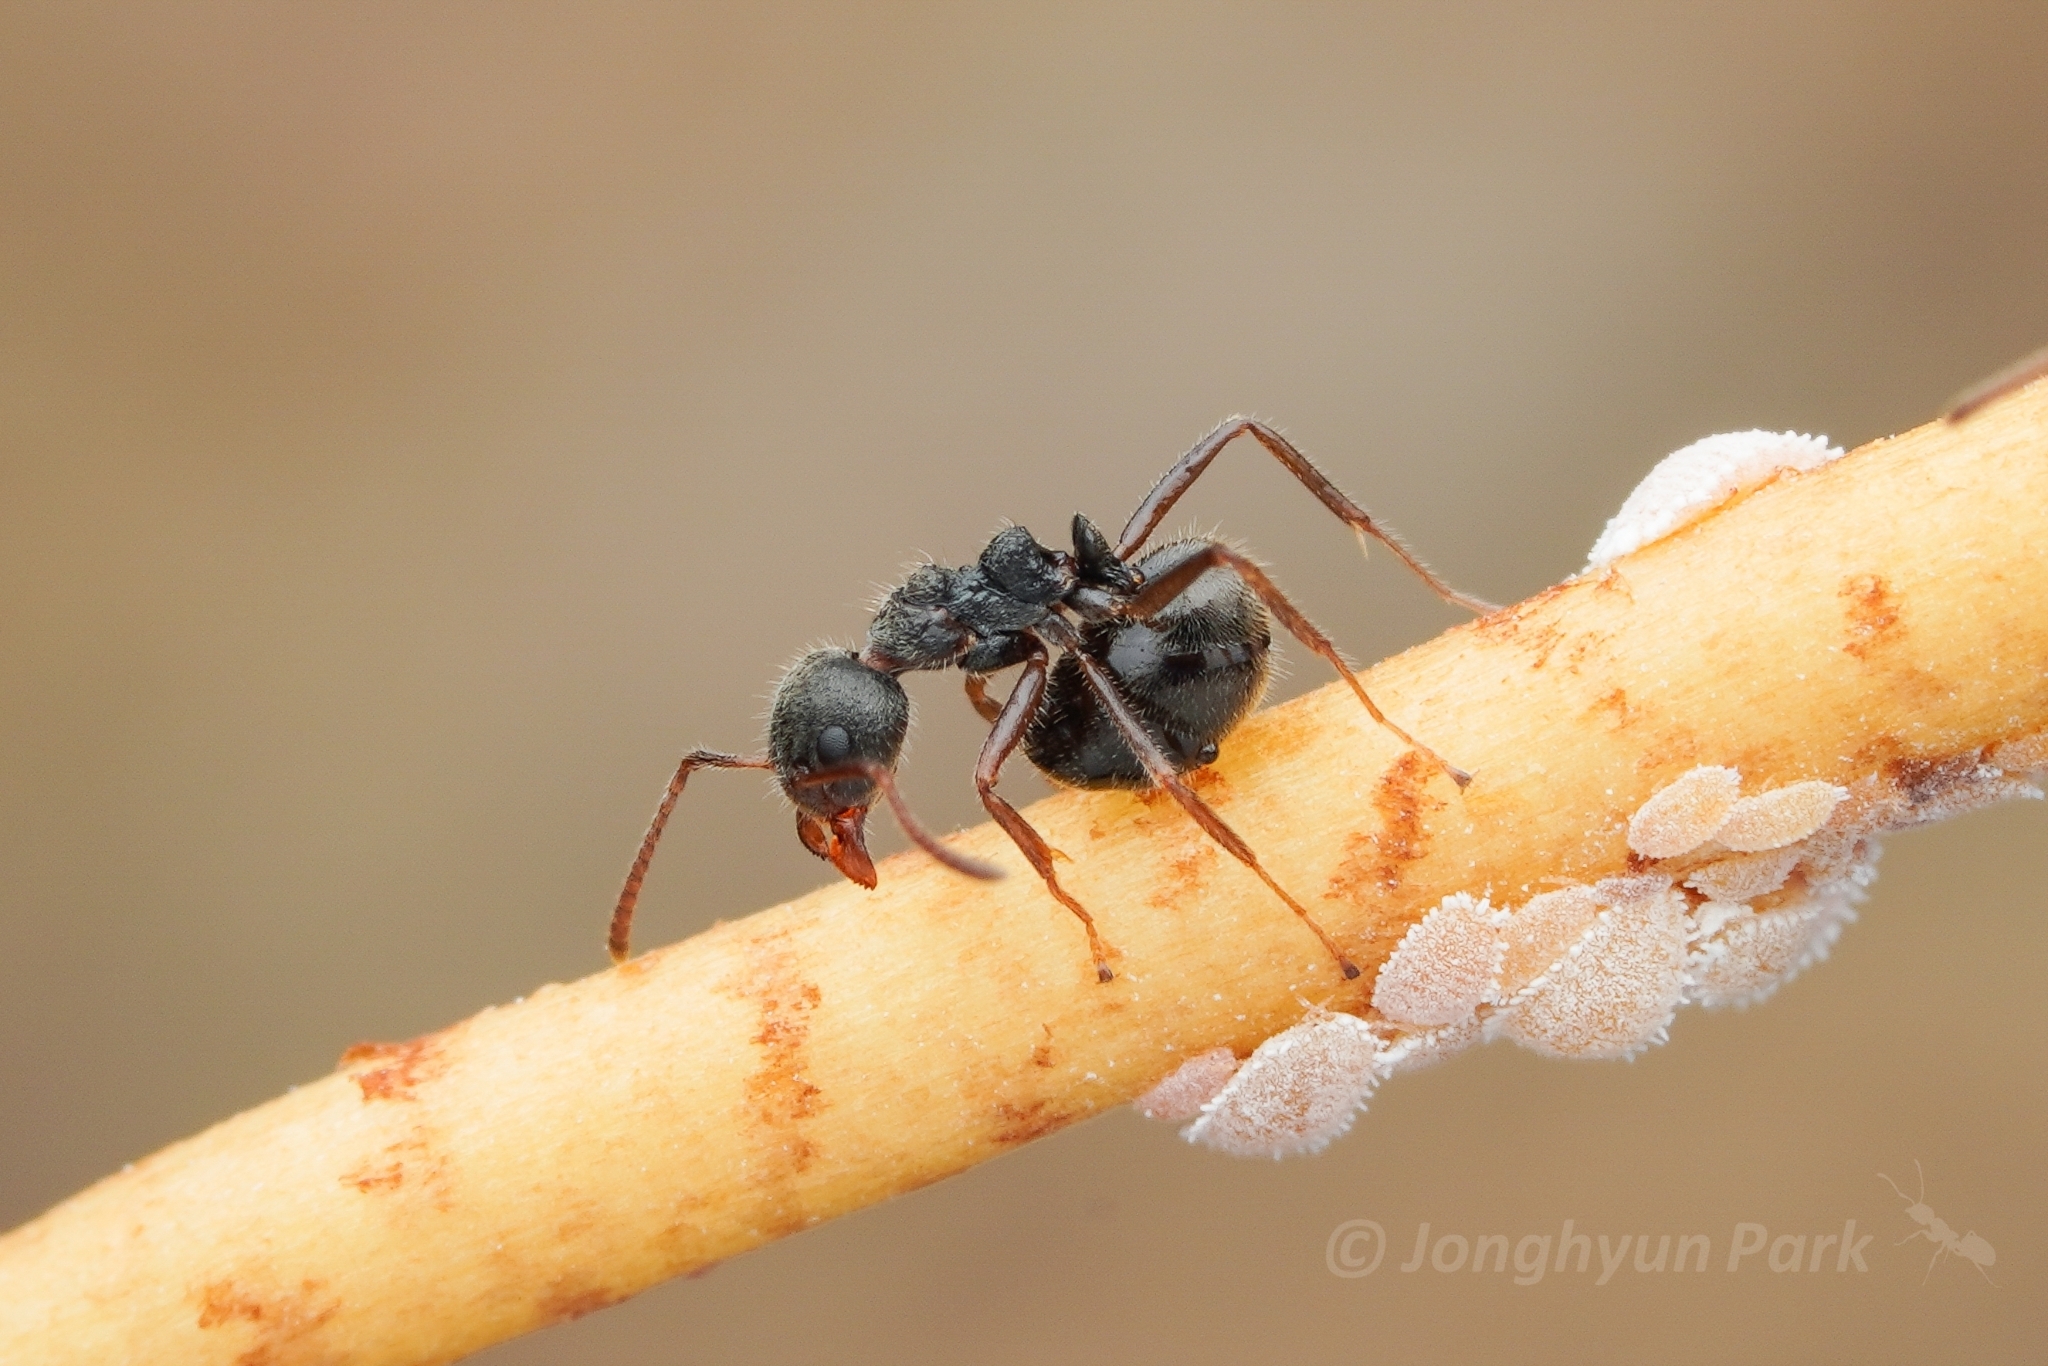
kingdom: Animalia
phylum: Arthropoda
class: Insecta
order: Hymenoptera
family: Formicidae
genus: Dolichoderus
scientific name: Dolichoderus thoracicus
